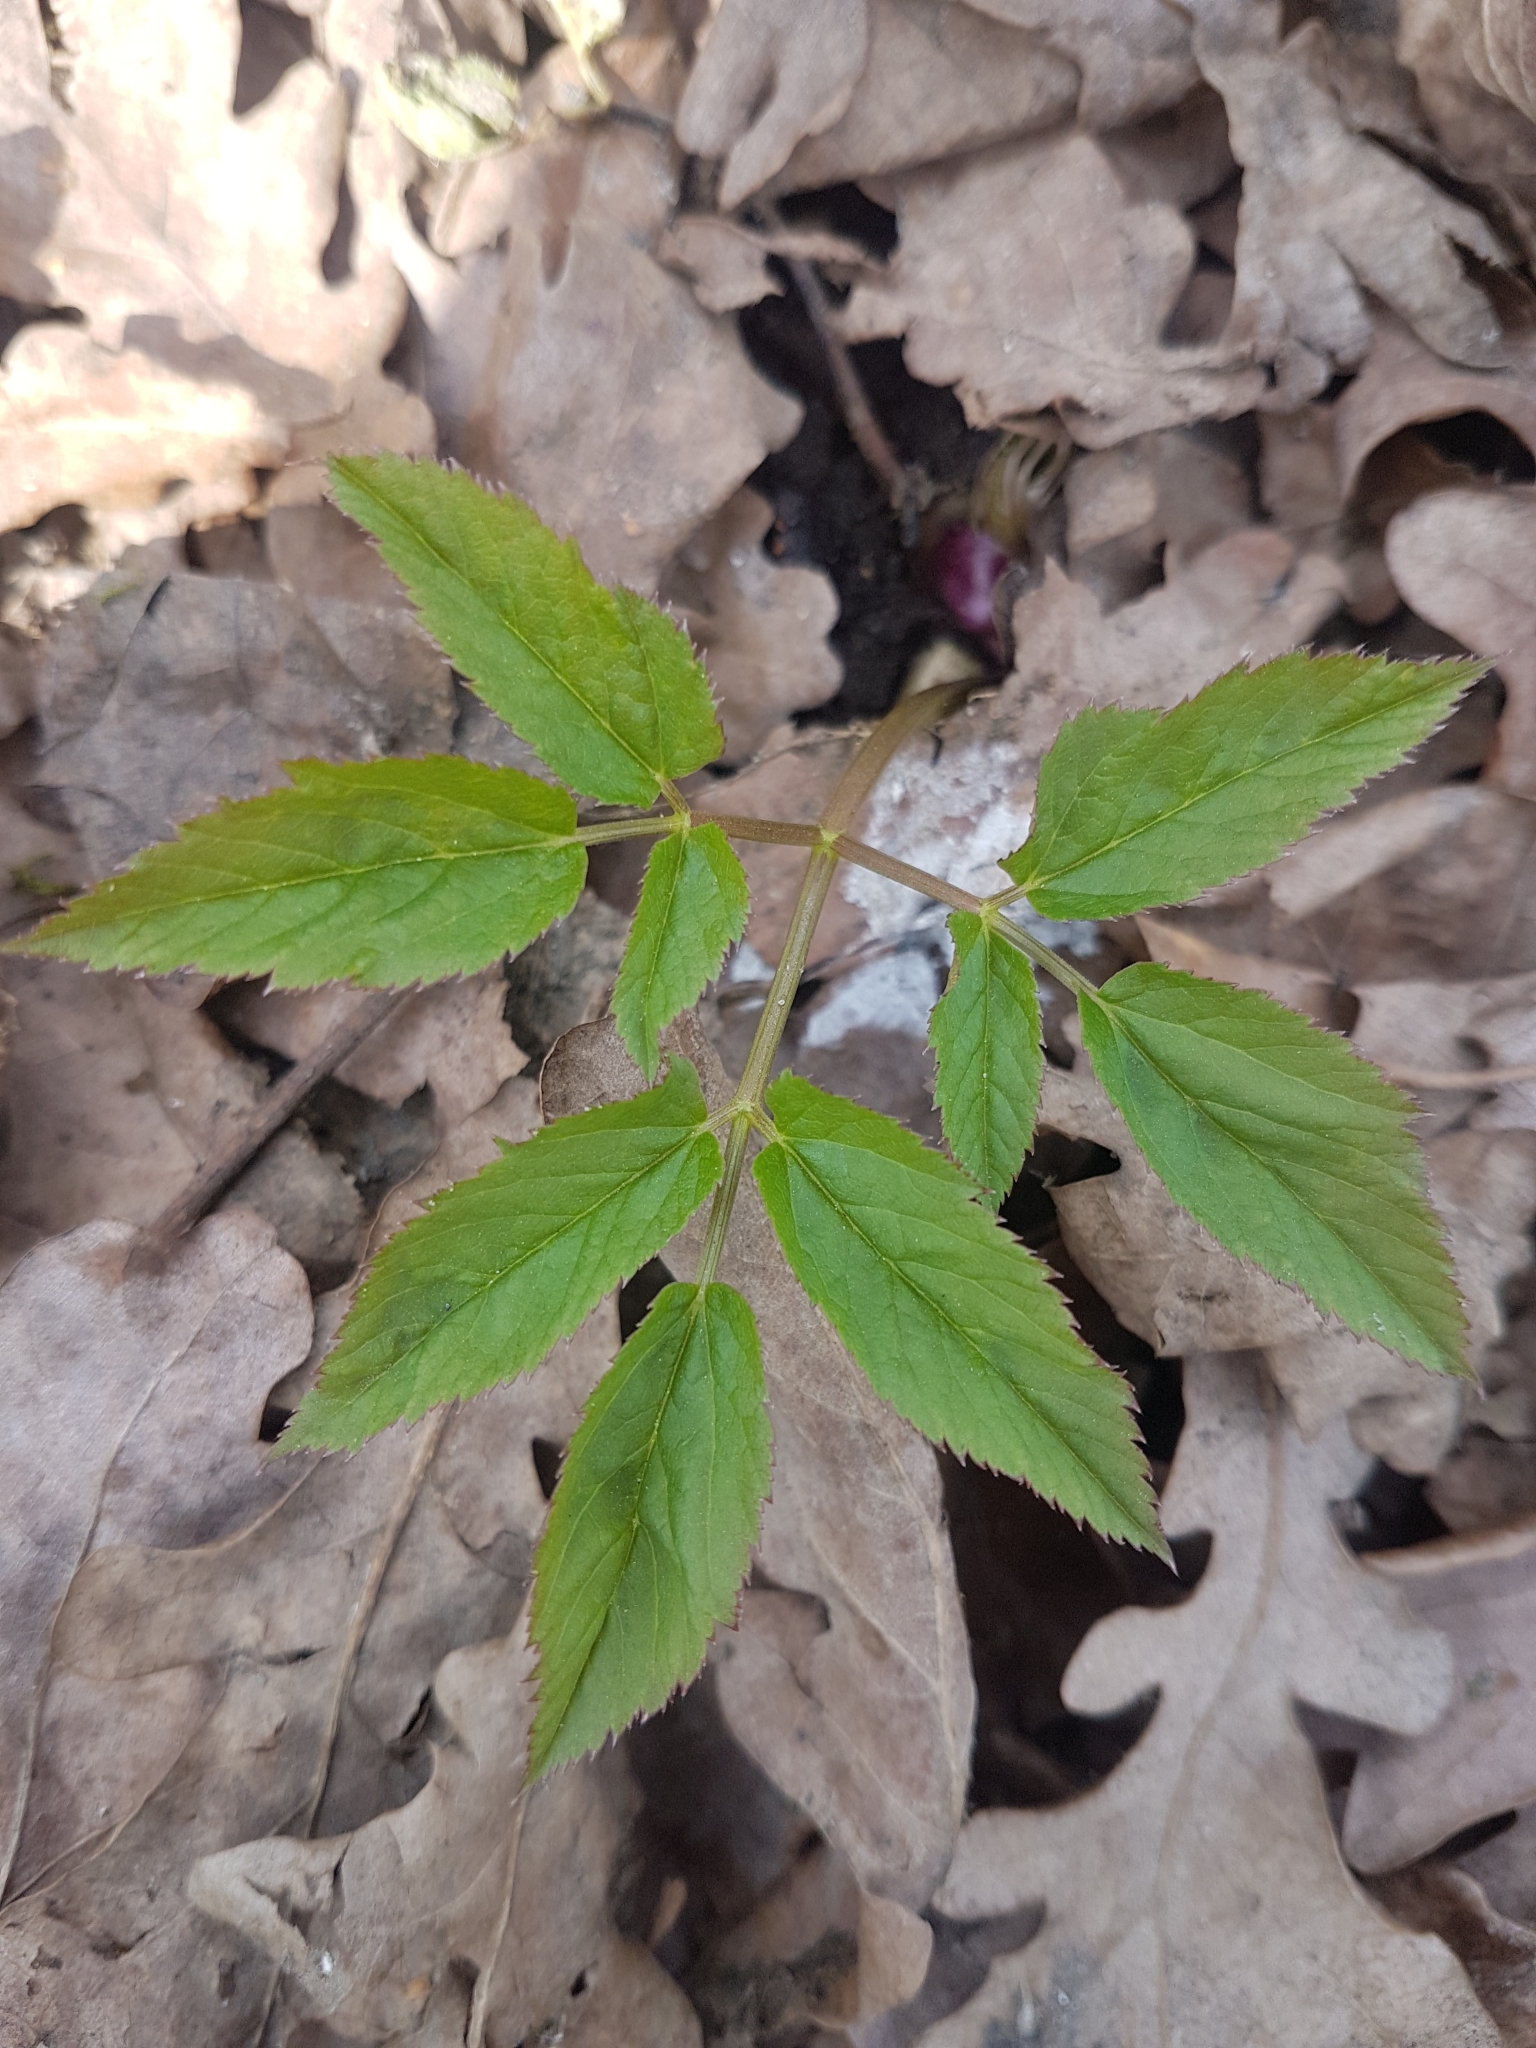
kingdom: Plantae
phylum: Tracheophyta
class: Magnoliopsida
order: Apiales
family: Apiaceae
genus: Aegopodium
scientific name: Aegopodium podagraria
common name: Ground-elder
